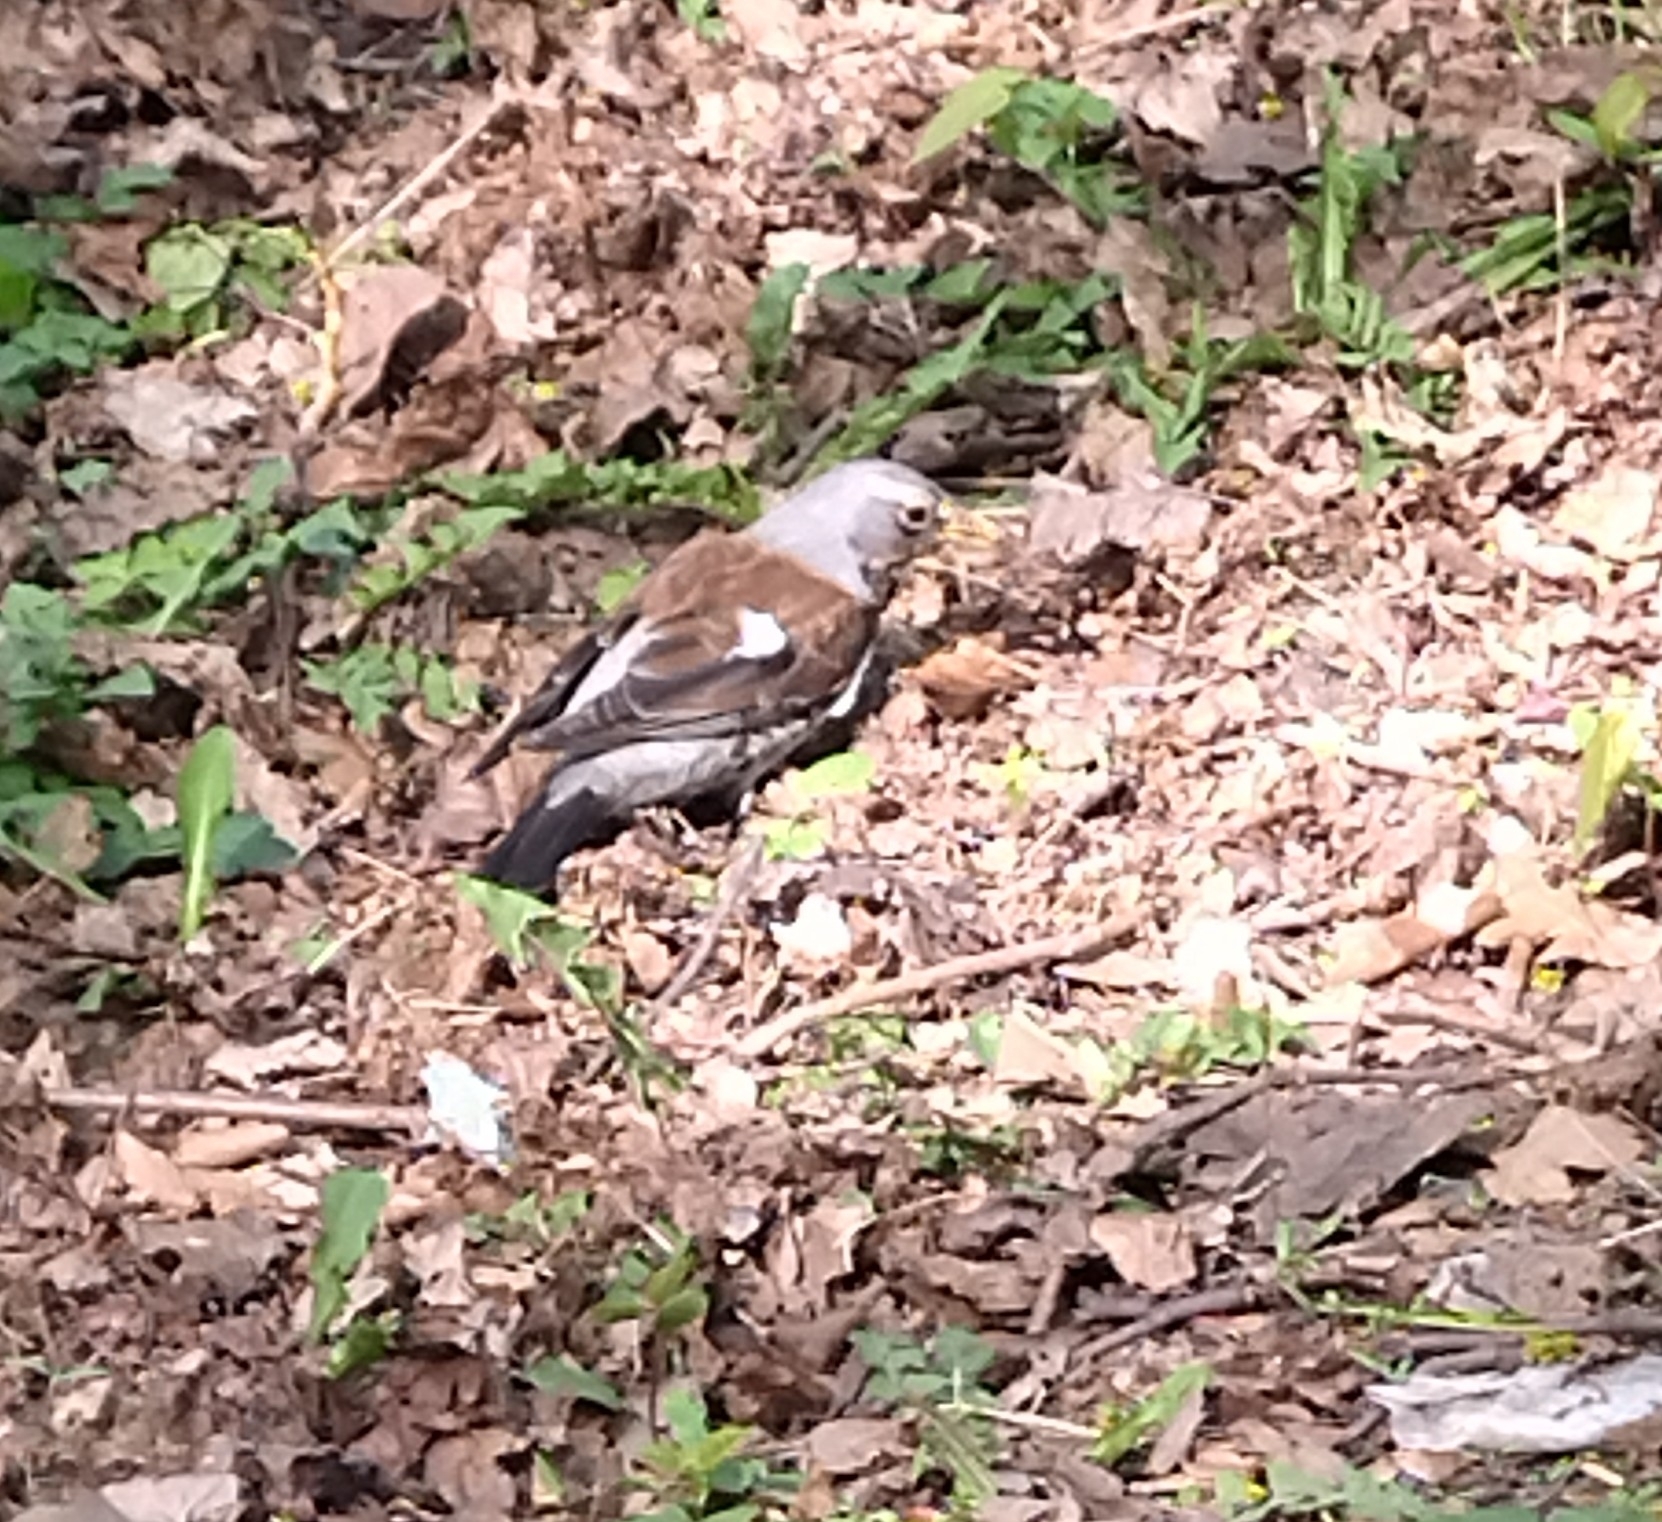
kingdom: Animalia
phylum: Chordata
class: Aves
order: Passeriformes
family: Turdidae
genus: Turdus
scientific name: Turdus pilaris
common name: Fieldfare
